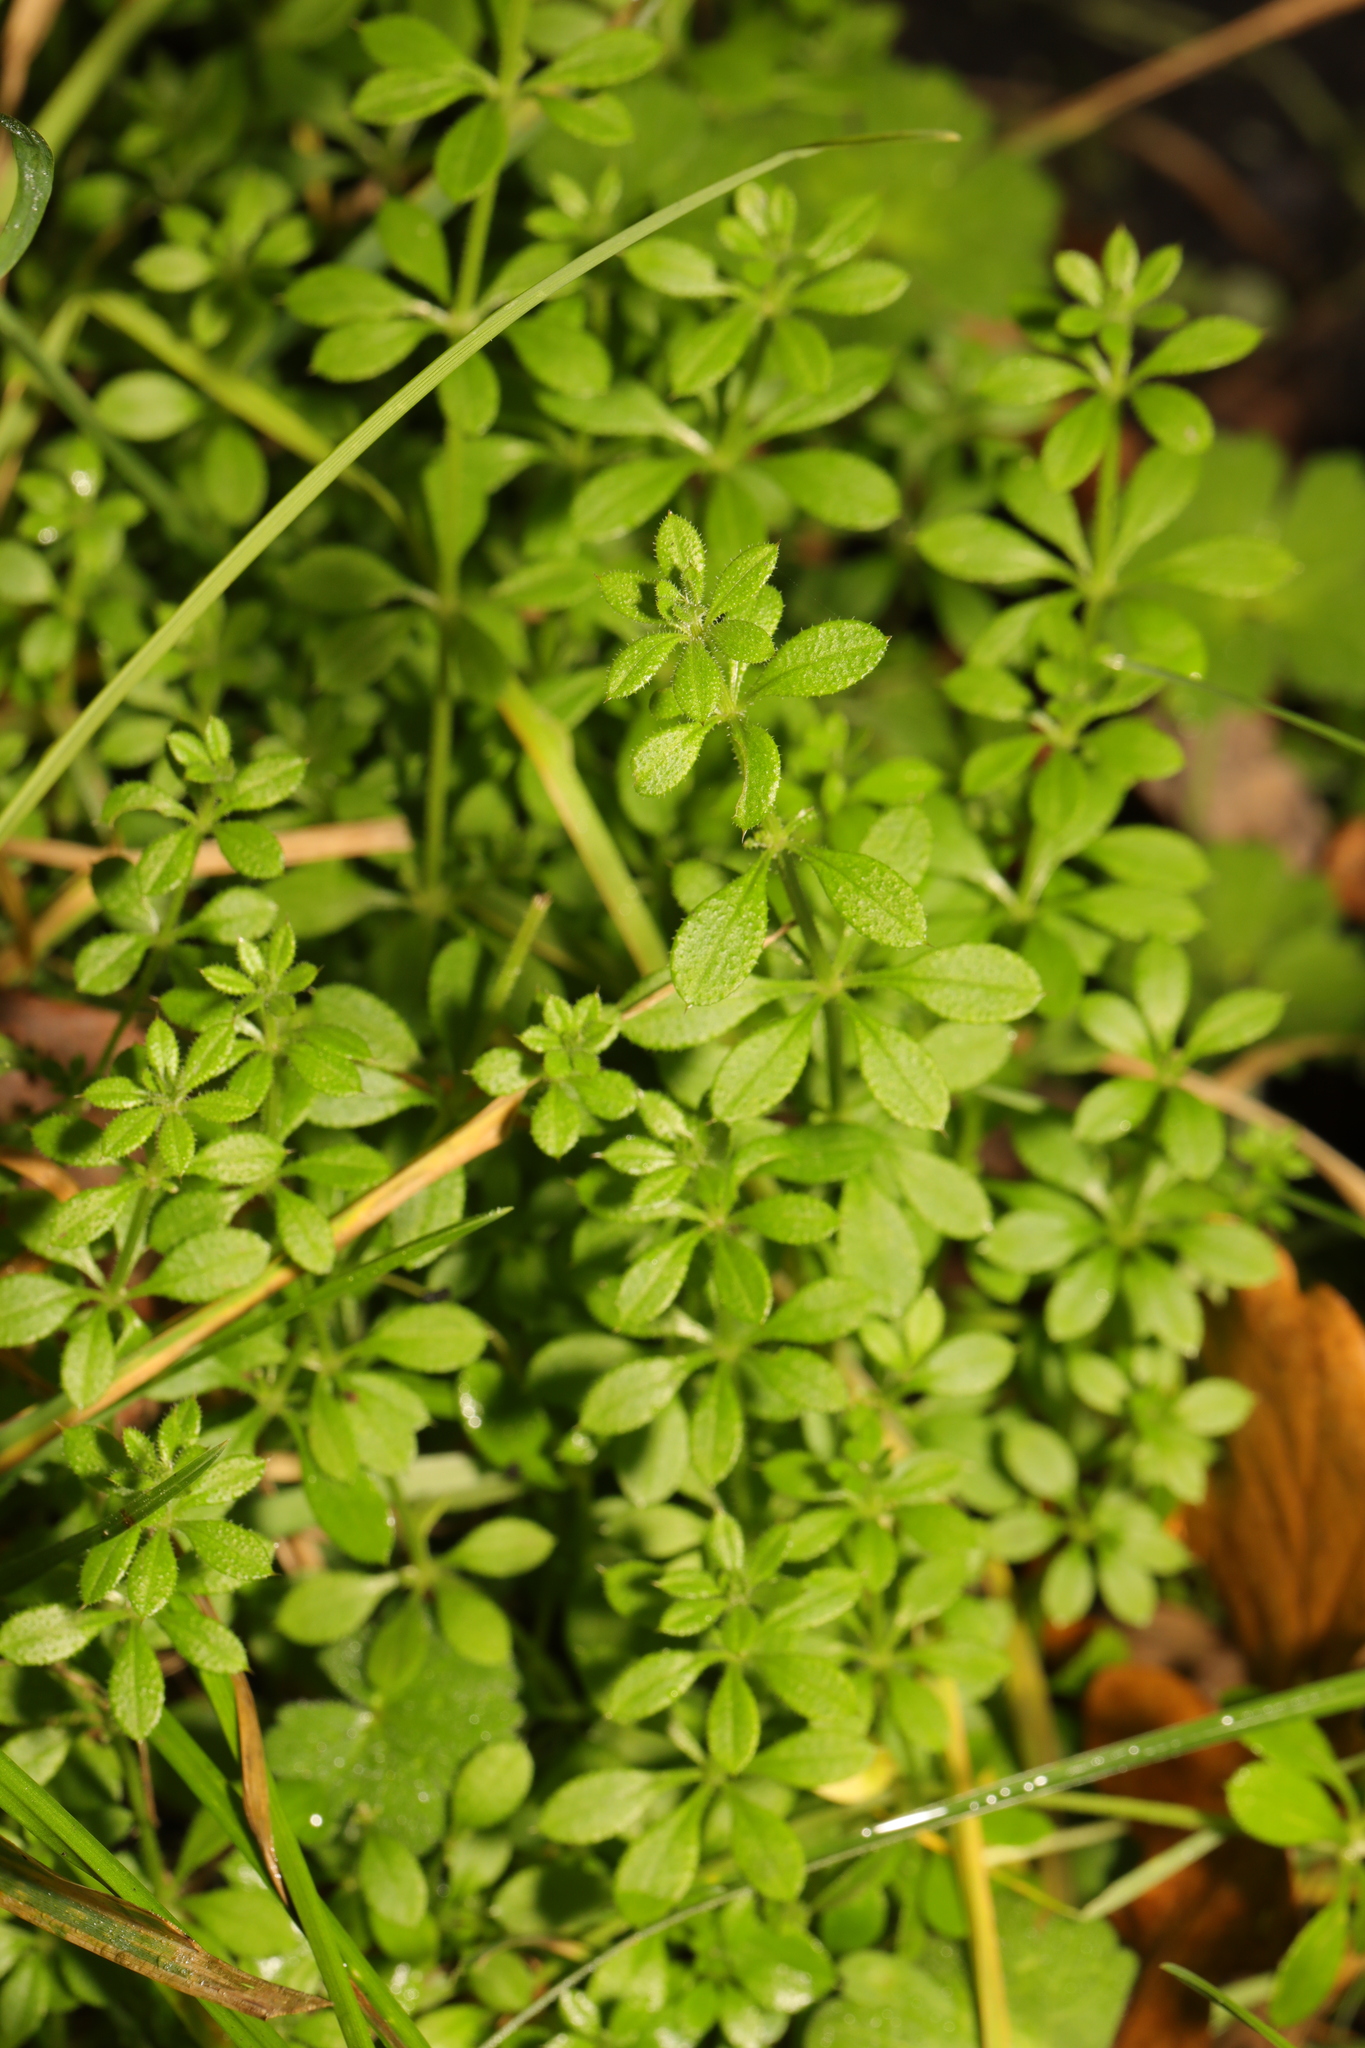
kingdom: Plantae
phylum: Tracheophyta
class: Magnoliopsida
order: Gentianales
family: Rubiaceae
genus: Galium
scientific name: Galium aparine
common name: Cleavers
